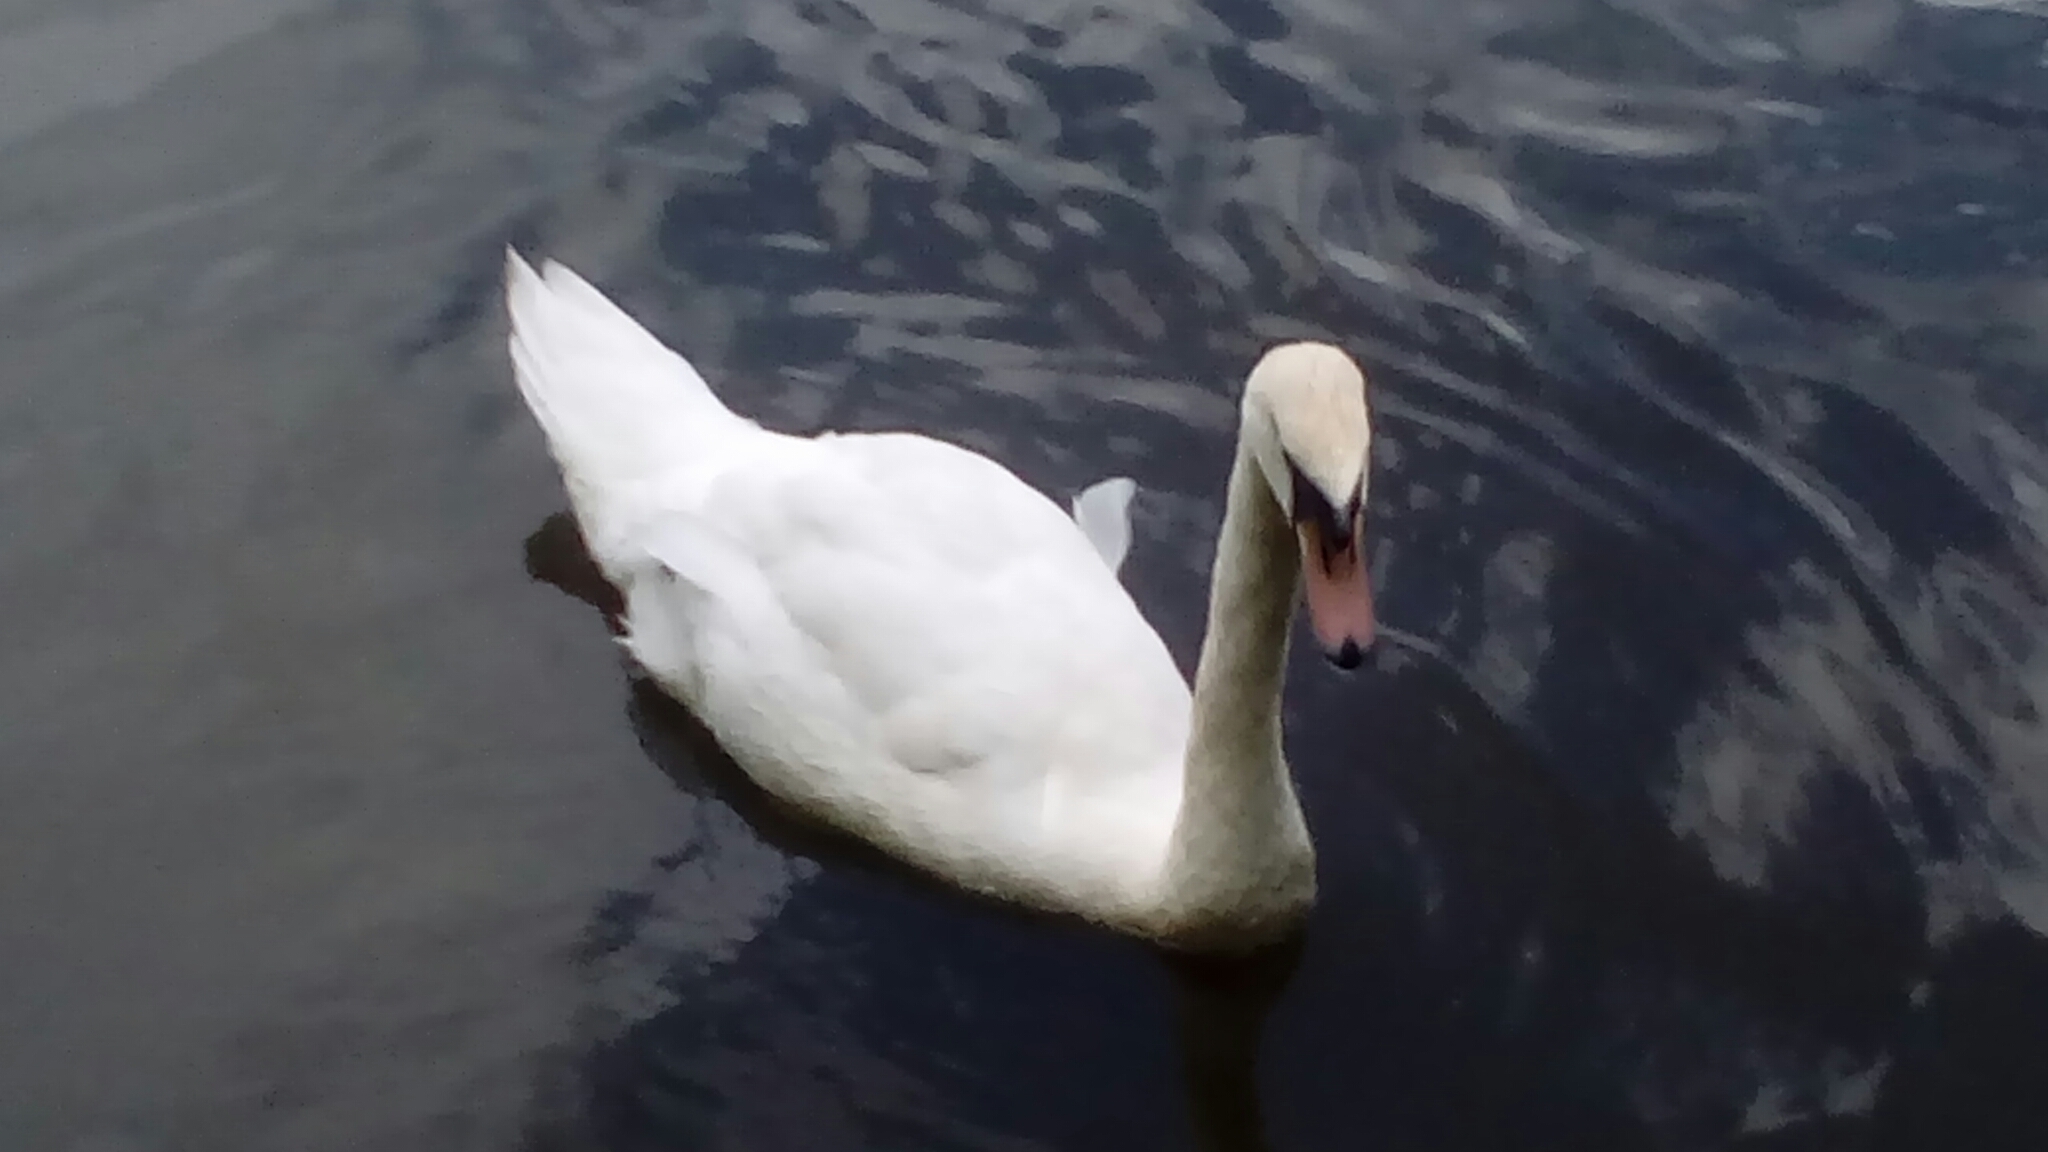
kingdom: Animalia
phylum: Chordata
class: Aves
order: Anseriformes
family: Anatidae
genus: Cygnus
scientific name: Cygnus olor
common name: Mute swan
